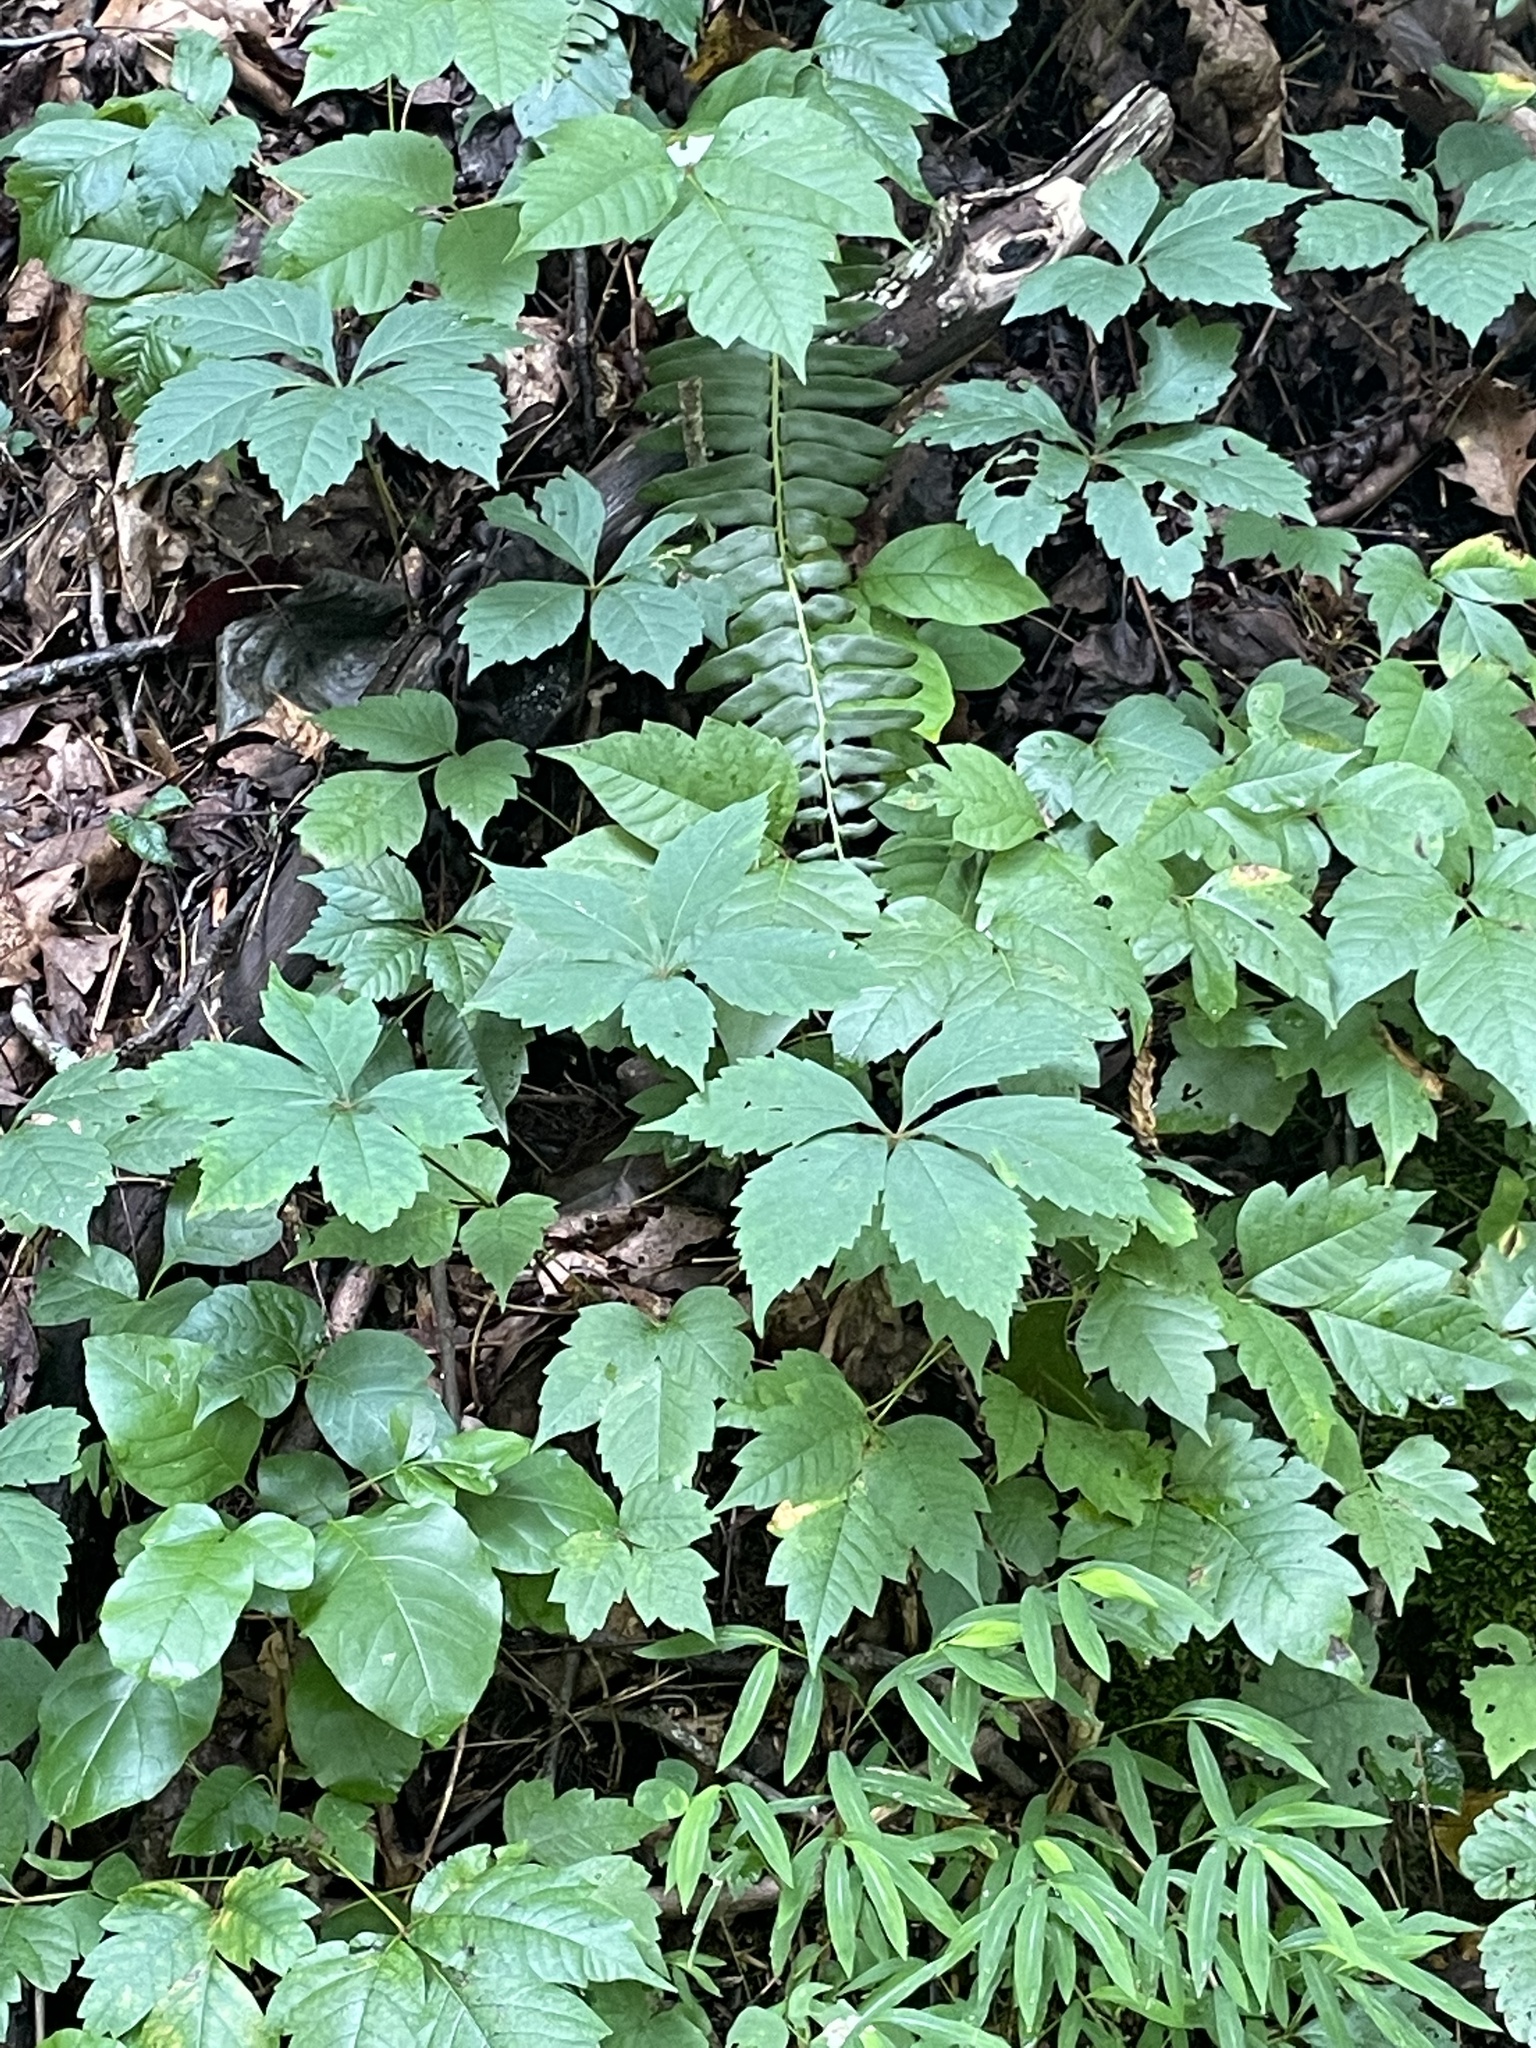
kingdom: Plantae
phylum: Tracheophyta
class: Magnoliopsida
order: Vitales
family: Vitaceae
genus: Parthenocissus
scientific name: Parthenocissus quinquefolia
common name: Virginia-creeper
